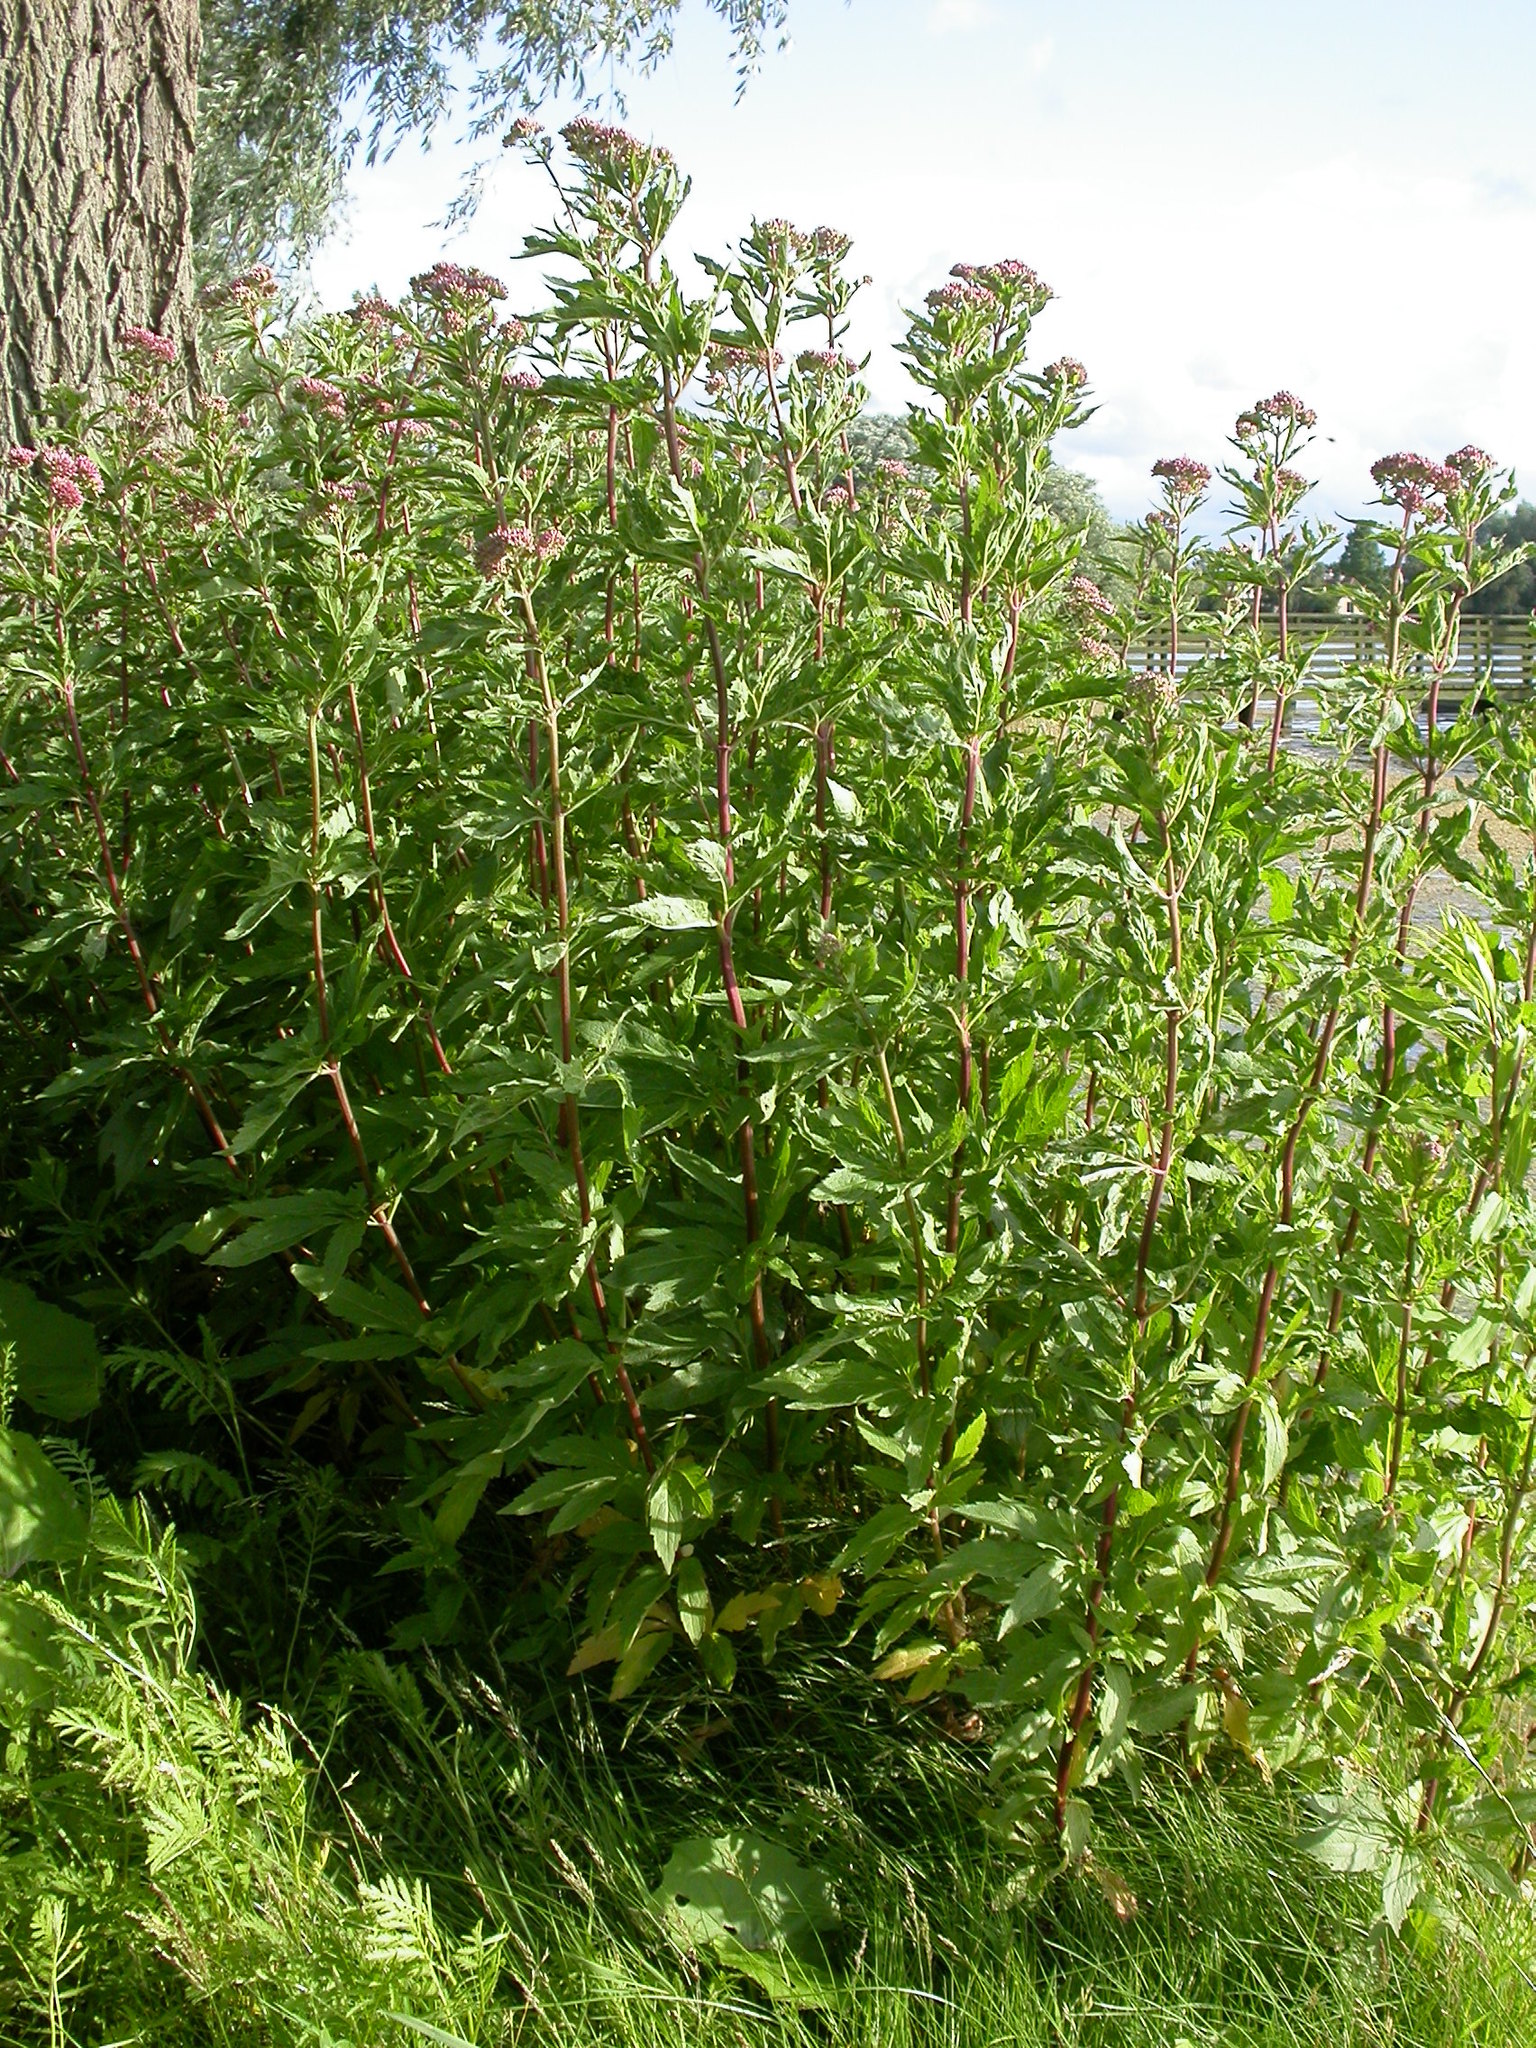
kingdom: Plantae
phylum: Tracheophyta
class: Magnoliopsida
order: Asterales
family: Asteraceae
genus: Eupatorium
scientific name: Eupatorium cannabinum
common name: Hemp-agrimony
